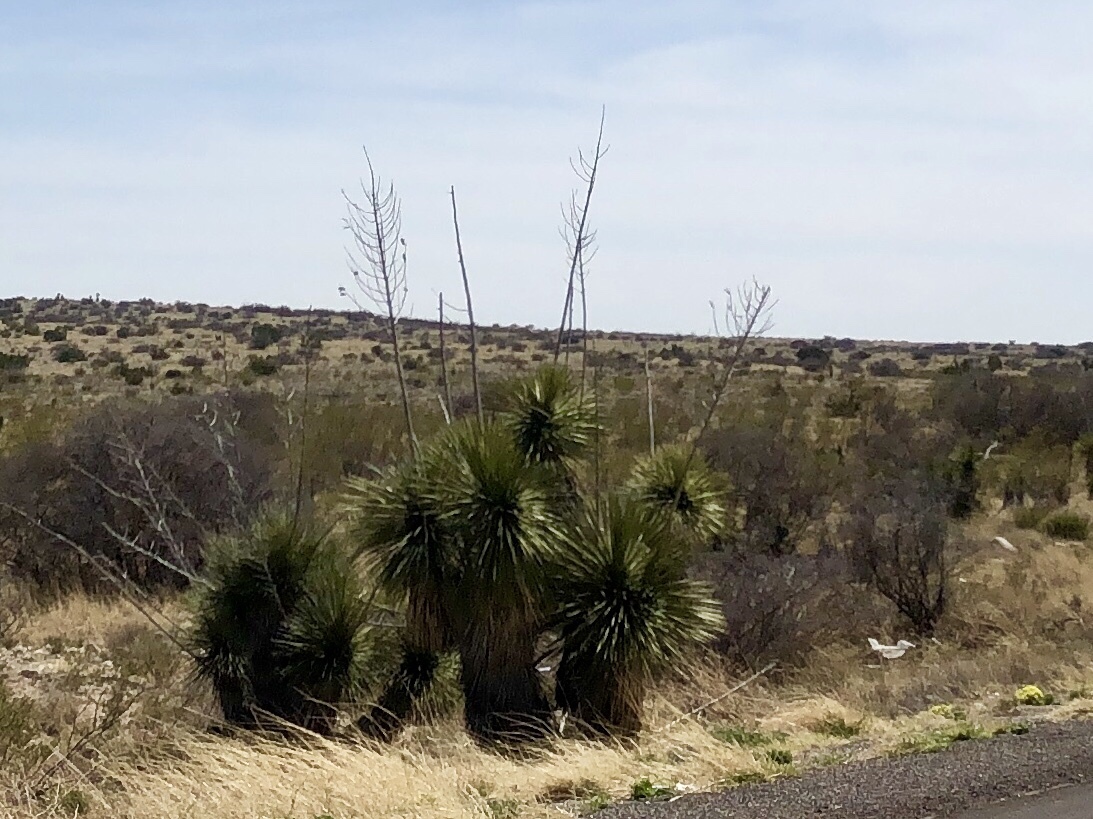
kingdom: Plantae
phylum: Tracheophyta
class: Liliopsida
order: Asparagales
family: Asparagaceae
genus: Yucca
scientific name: Yucca elata
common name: Palmella
